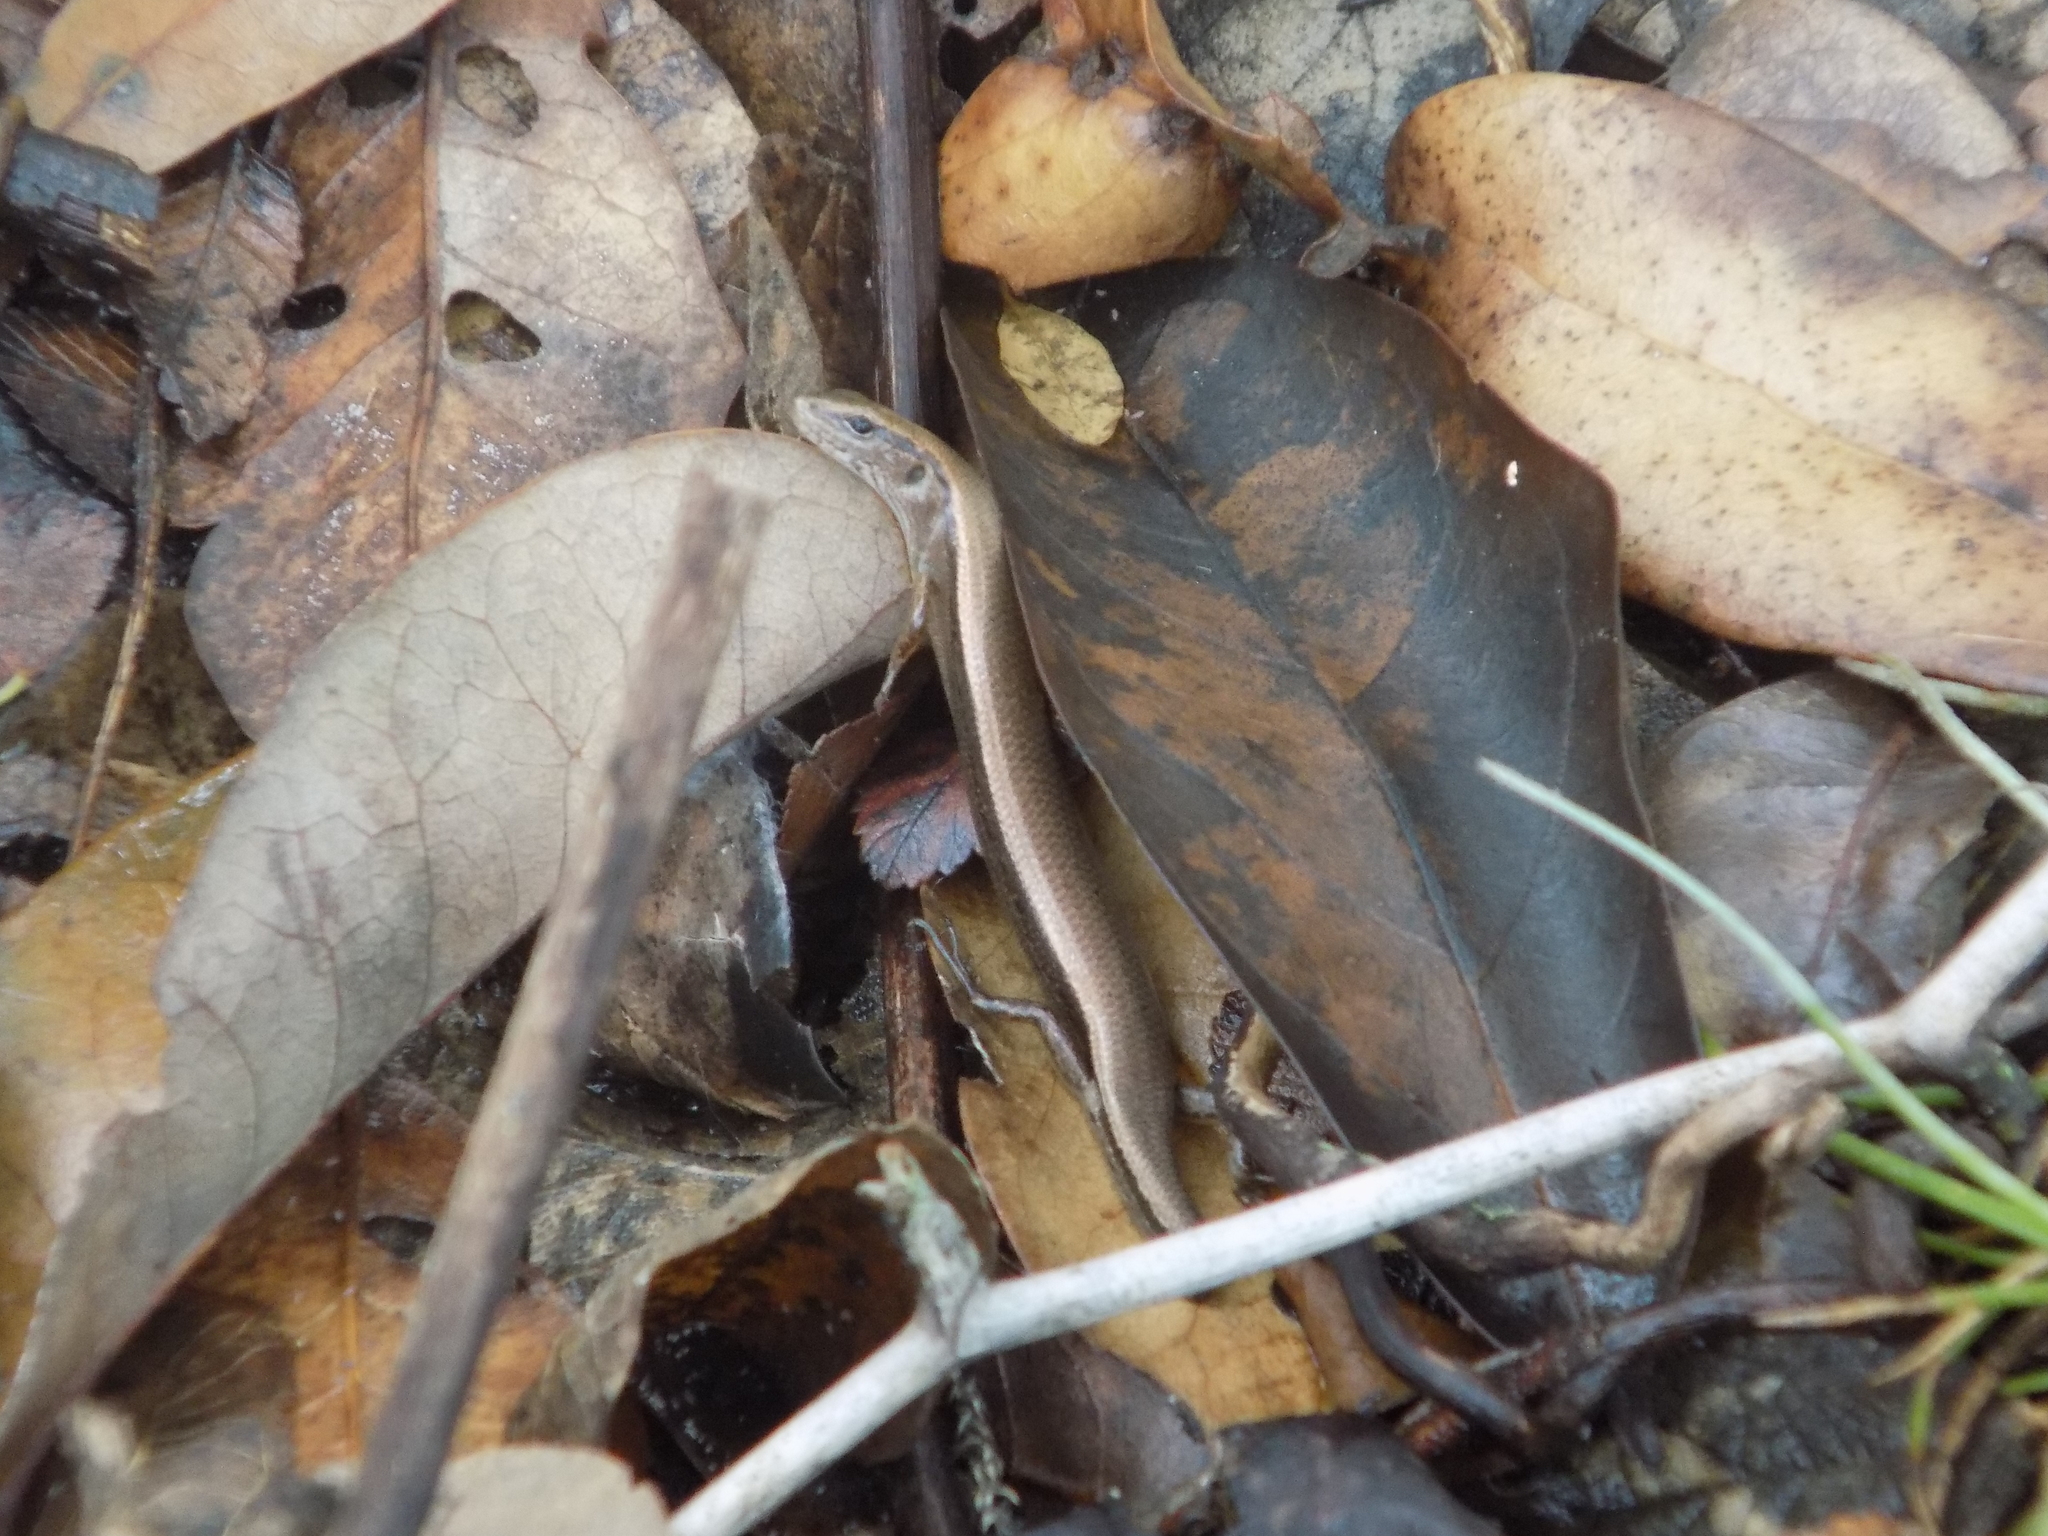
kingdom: Animalia
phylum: Chordata
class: Squamata
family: Scincidae
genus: Scincella
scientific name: Scincella lateralis
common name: Ground skink
